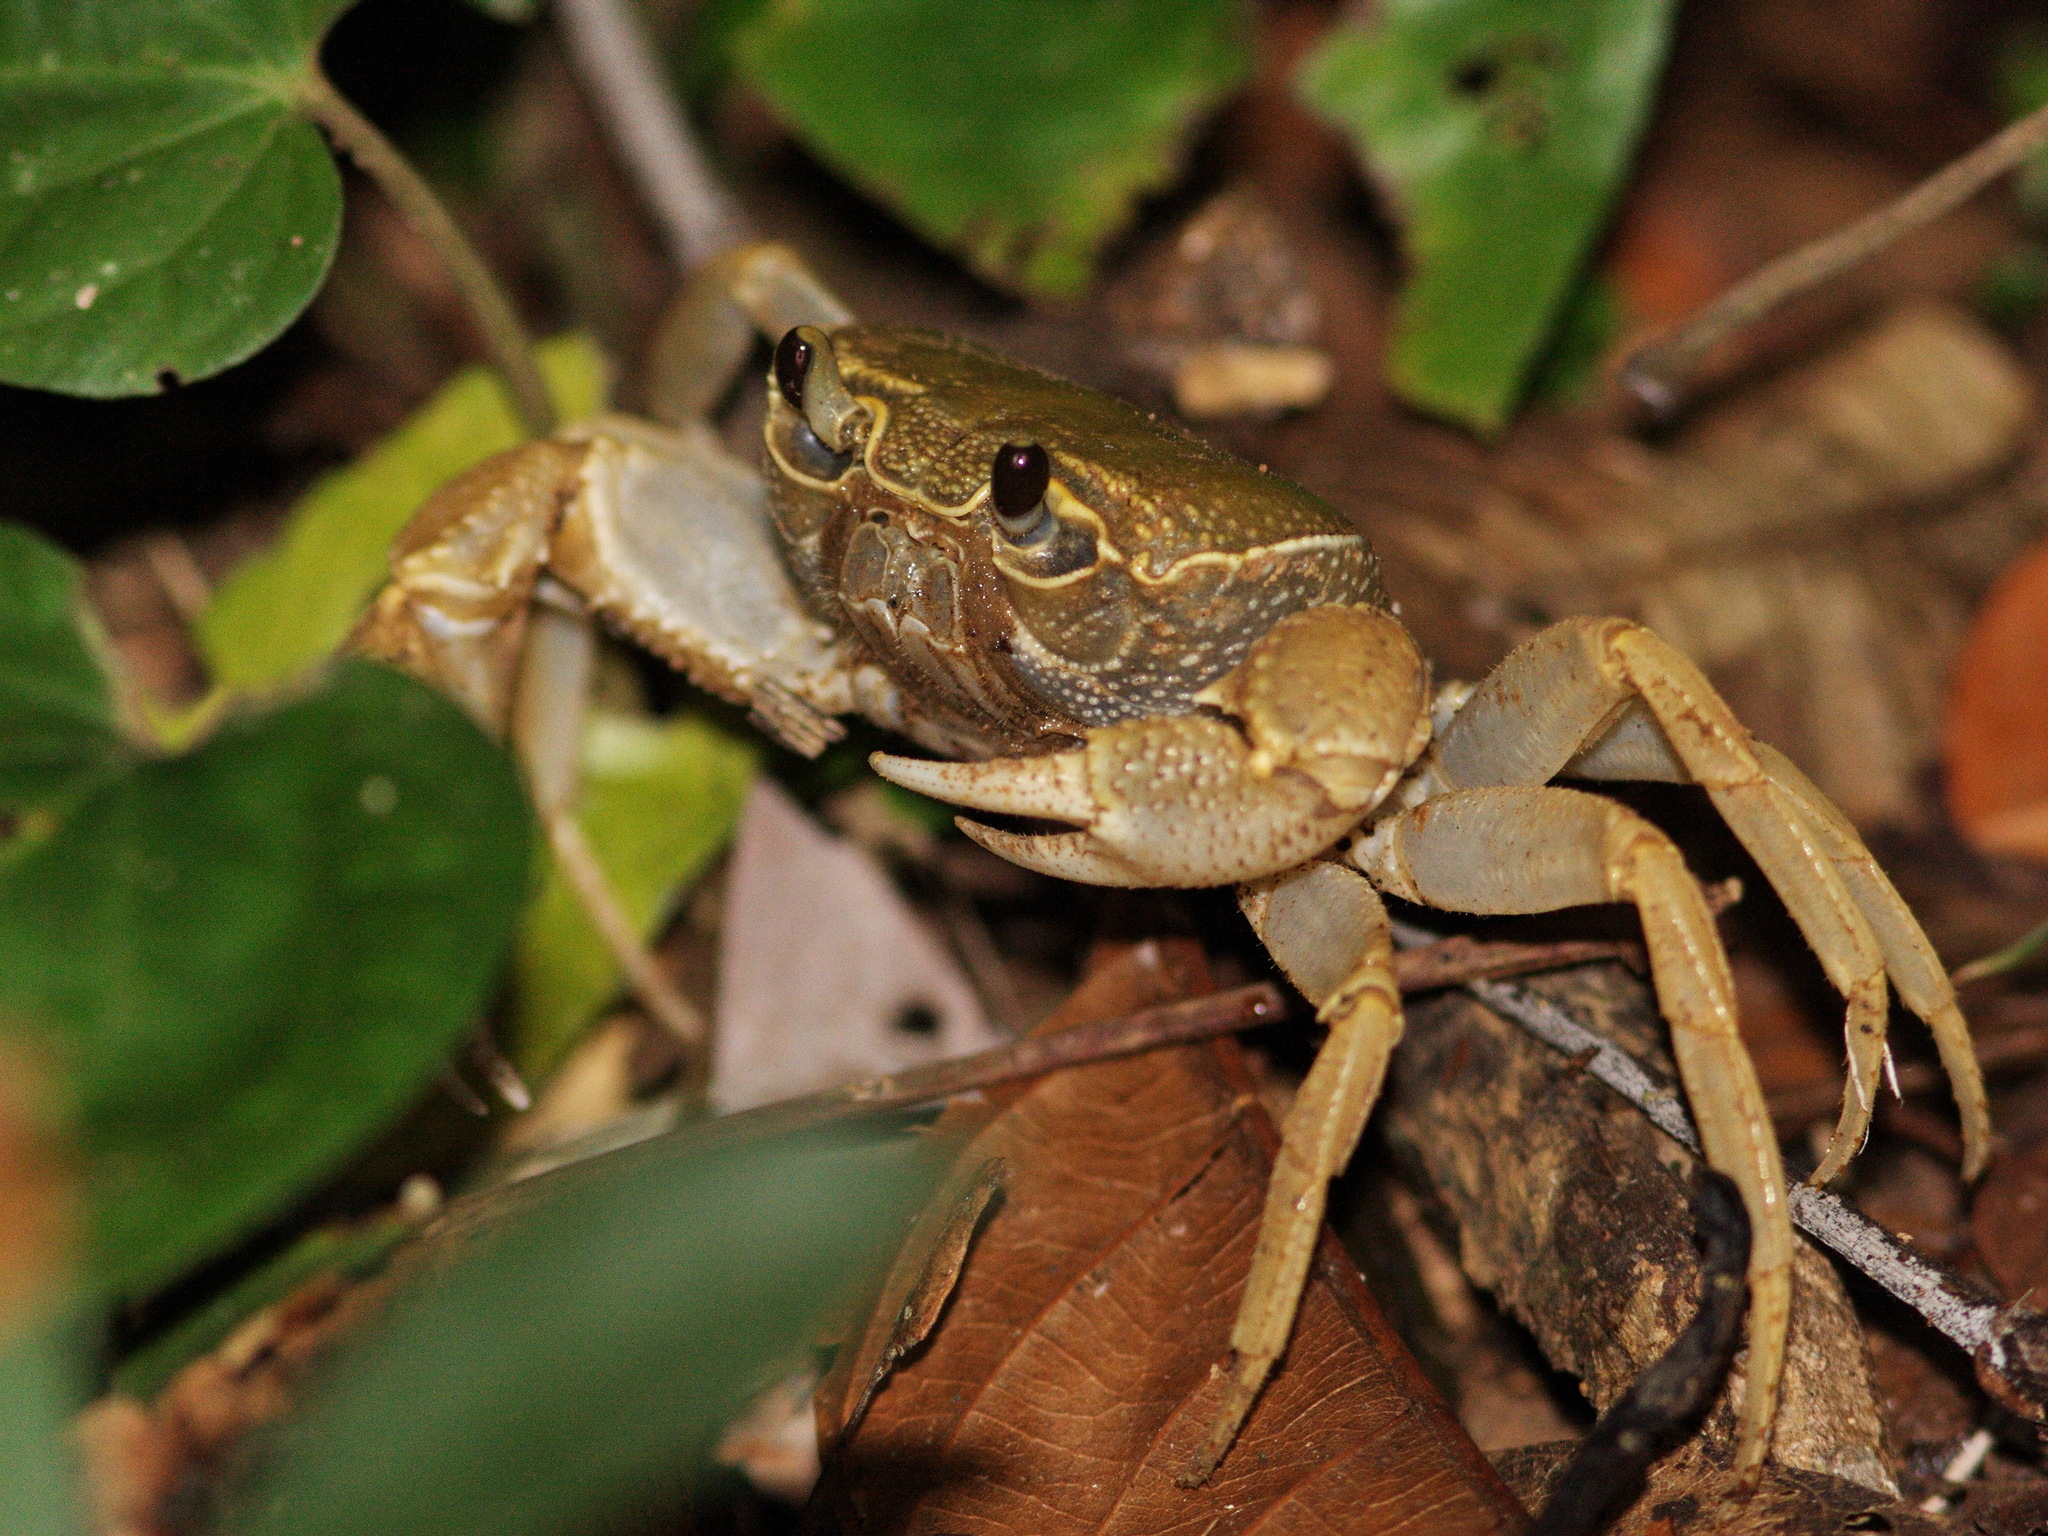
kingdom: Animalia
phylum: Arthropoda
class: Malacostraca
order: Decapoda
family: Potamidae
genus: Terrapotamon
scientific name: Terrapotamon phaibuli
